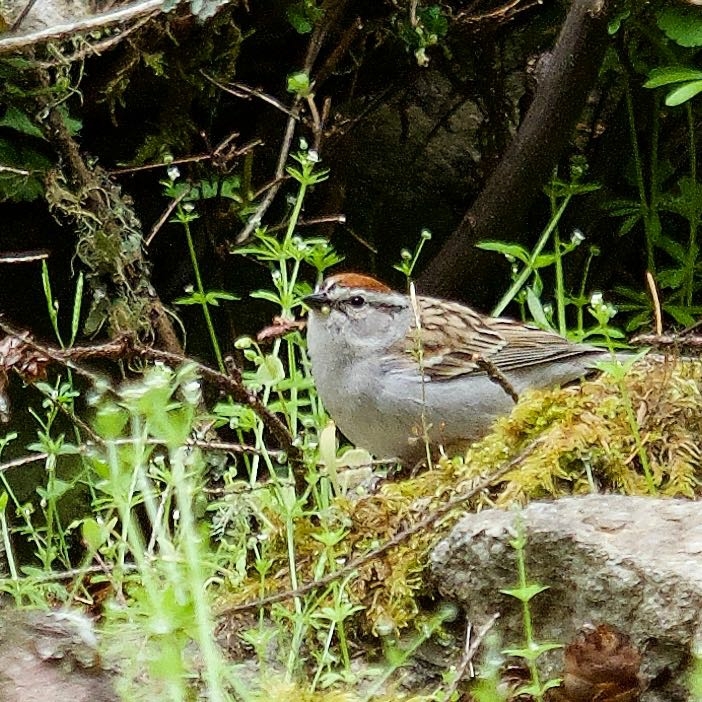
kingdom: Animalia
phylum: Chordata
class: Aves
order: Passeriformes
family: Passerellidae
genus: Spizella
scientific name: Spizella passerina
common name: Chipping sparrow
